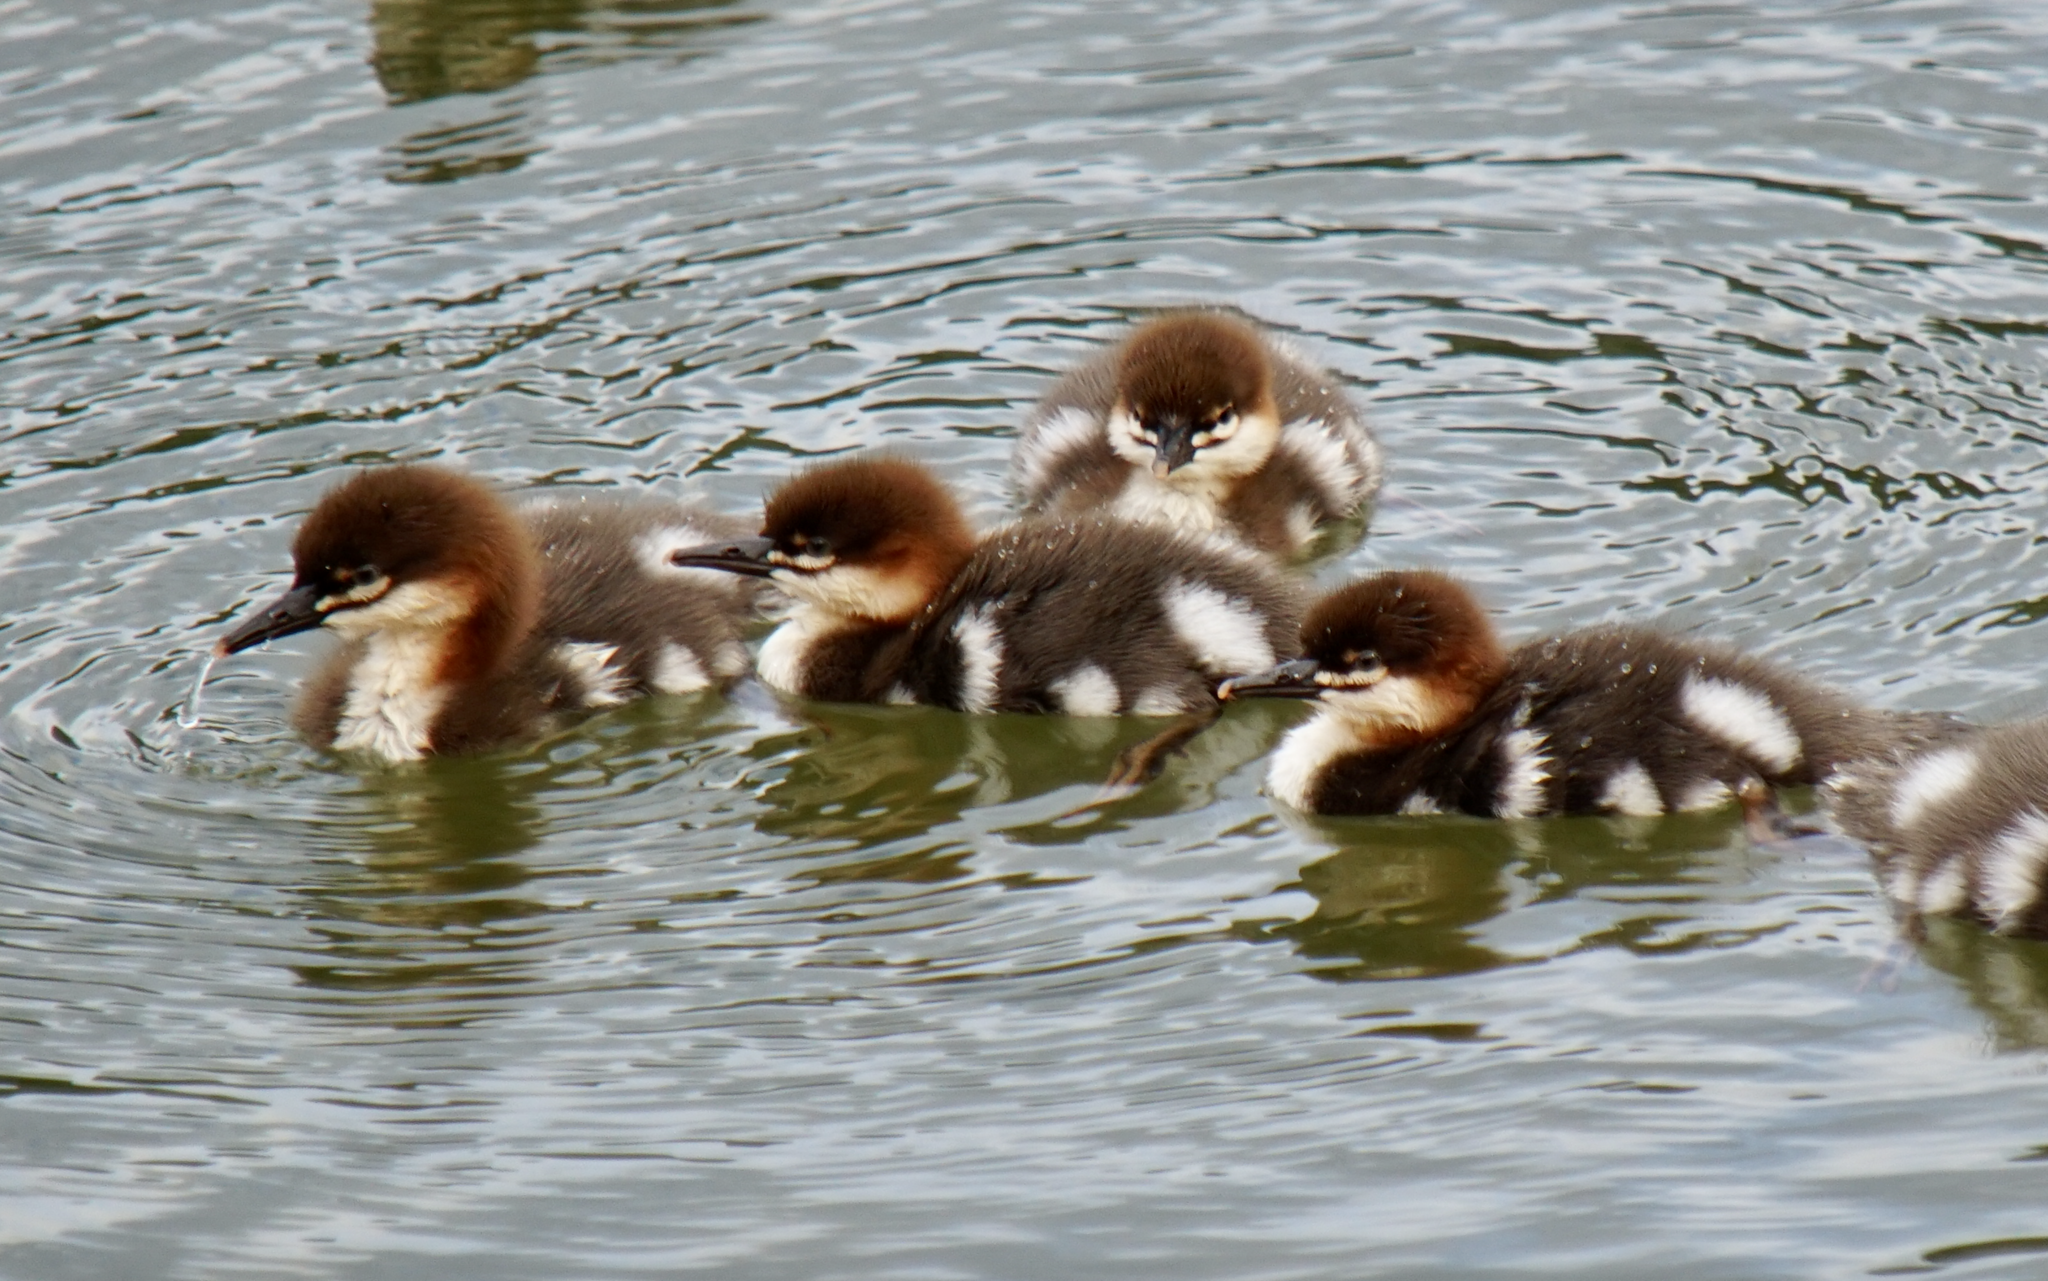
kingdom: Animalia
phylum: Chordata
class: Aves
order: Anseriformes
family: Anatidae
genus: Mergus
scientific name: Mergus merganser
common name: Common merganser
